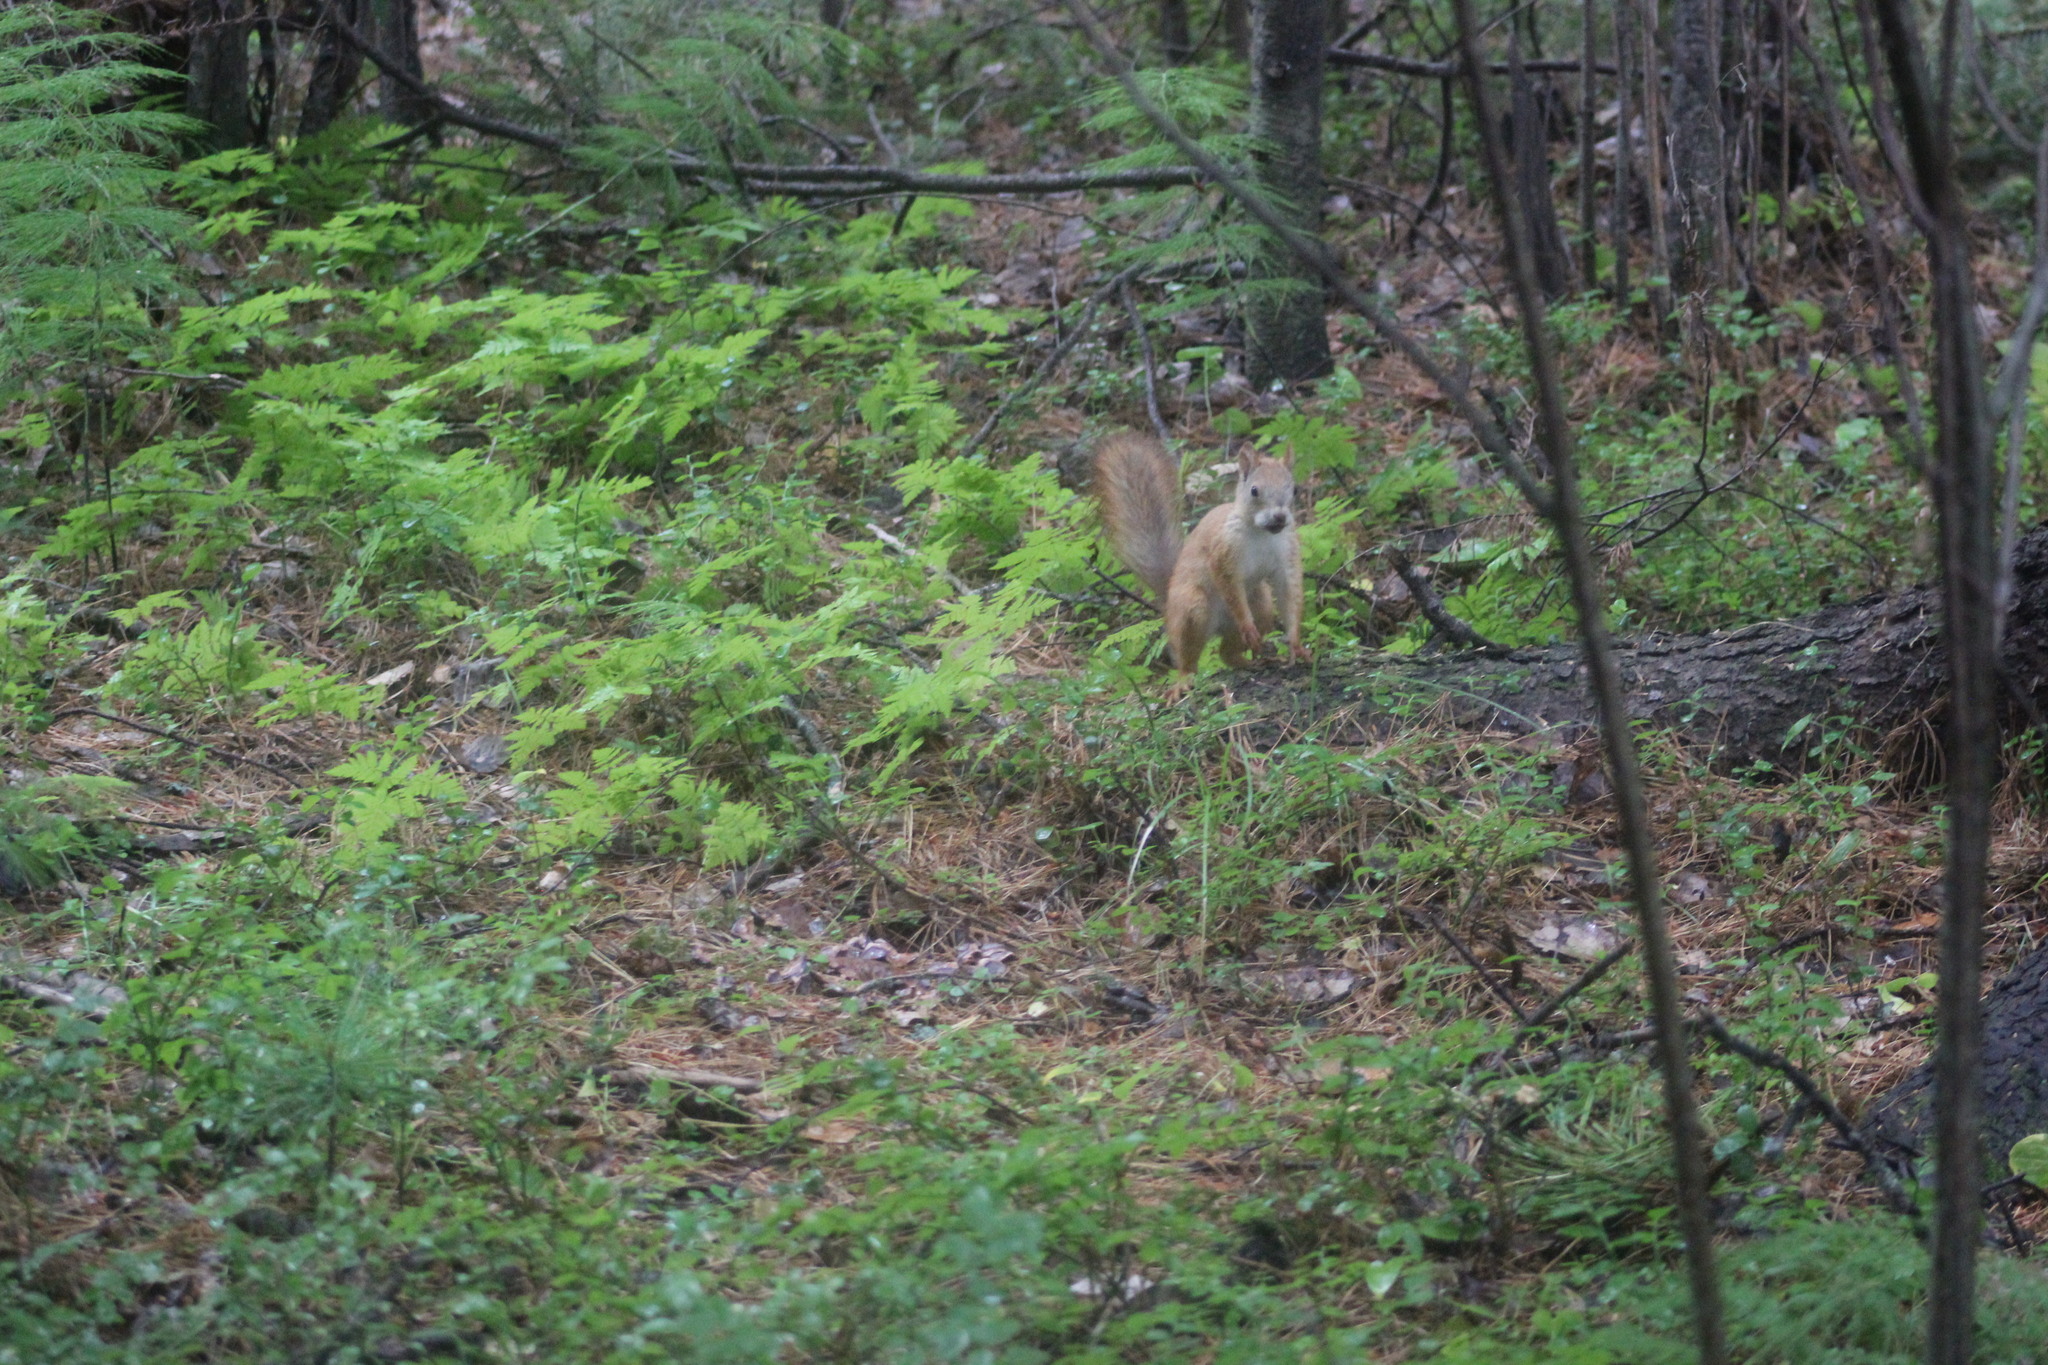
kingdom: Animalia
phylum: Chordata
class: Mammalia
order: Rodentia
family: Sciuridae
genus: Sciurus
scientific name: Sciurus vulgaris
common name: Eurasian red squirrel
